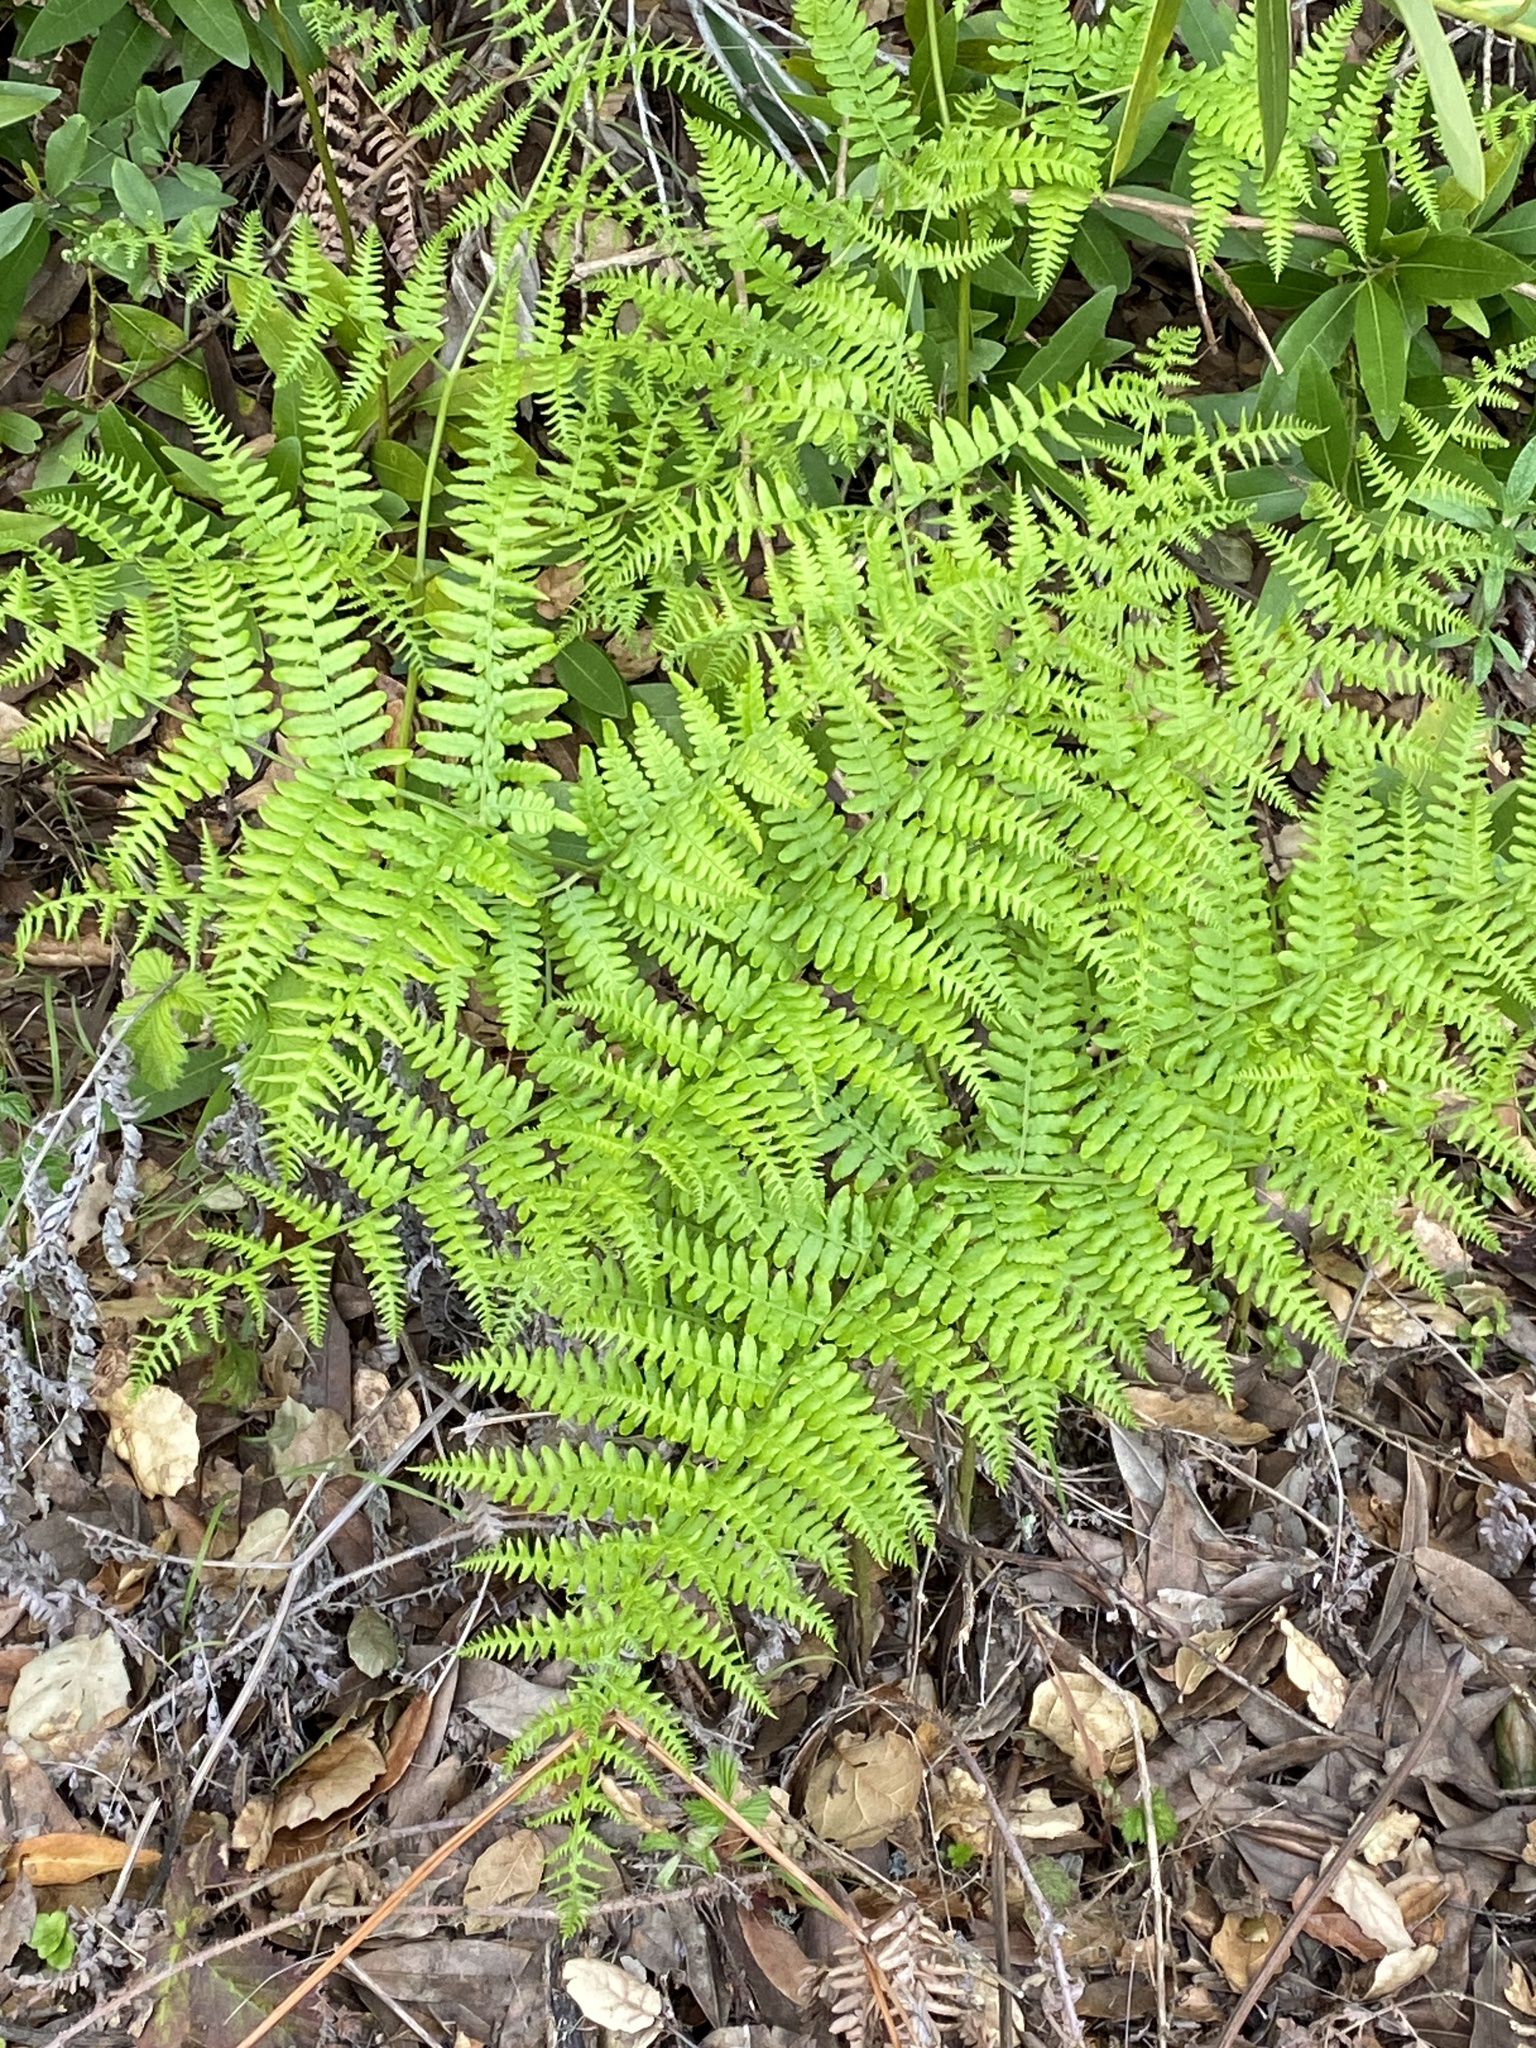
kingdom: Plantae
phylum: Tracheophyta
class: Polypodiopsida
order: Polypodiales
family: Dennstaedtiaceae
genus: Pteridium
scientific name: Pteridium aquilinum
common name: Bracken
